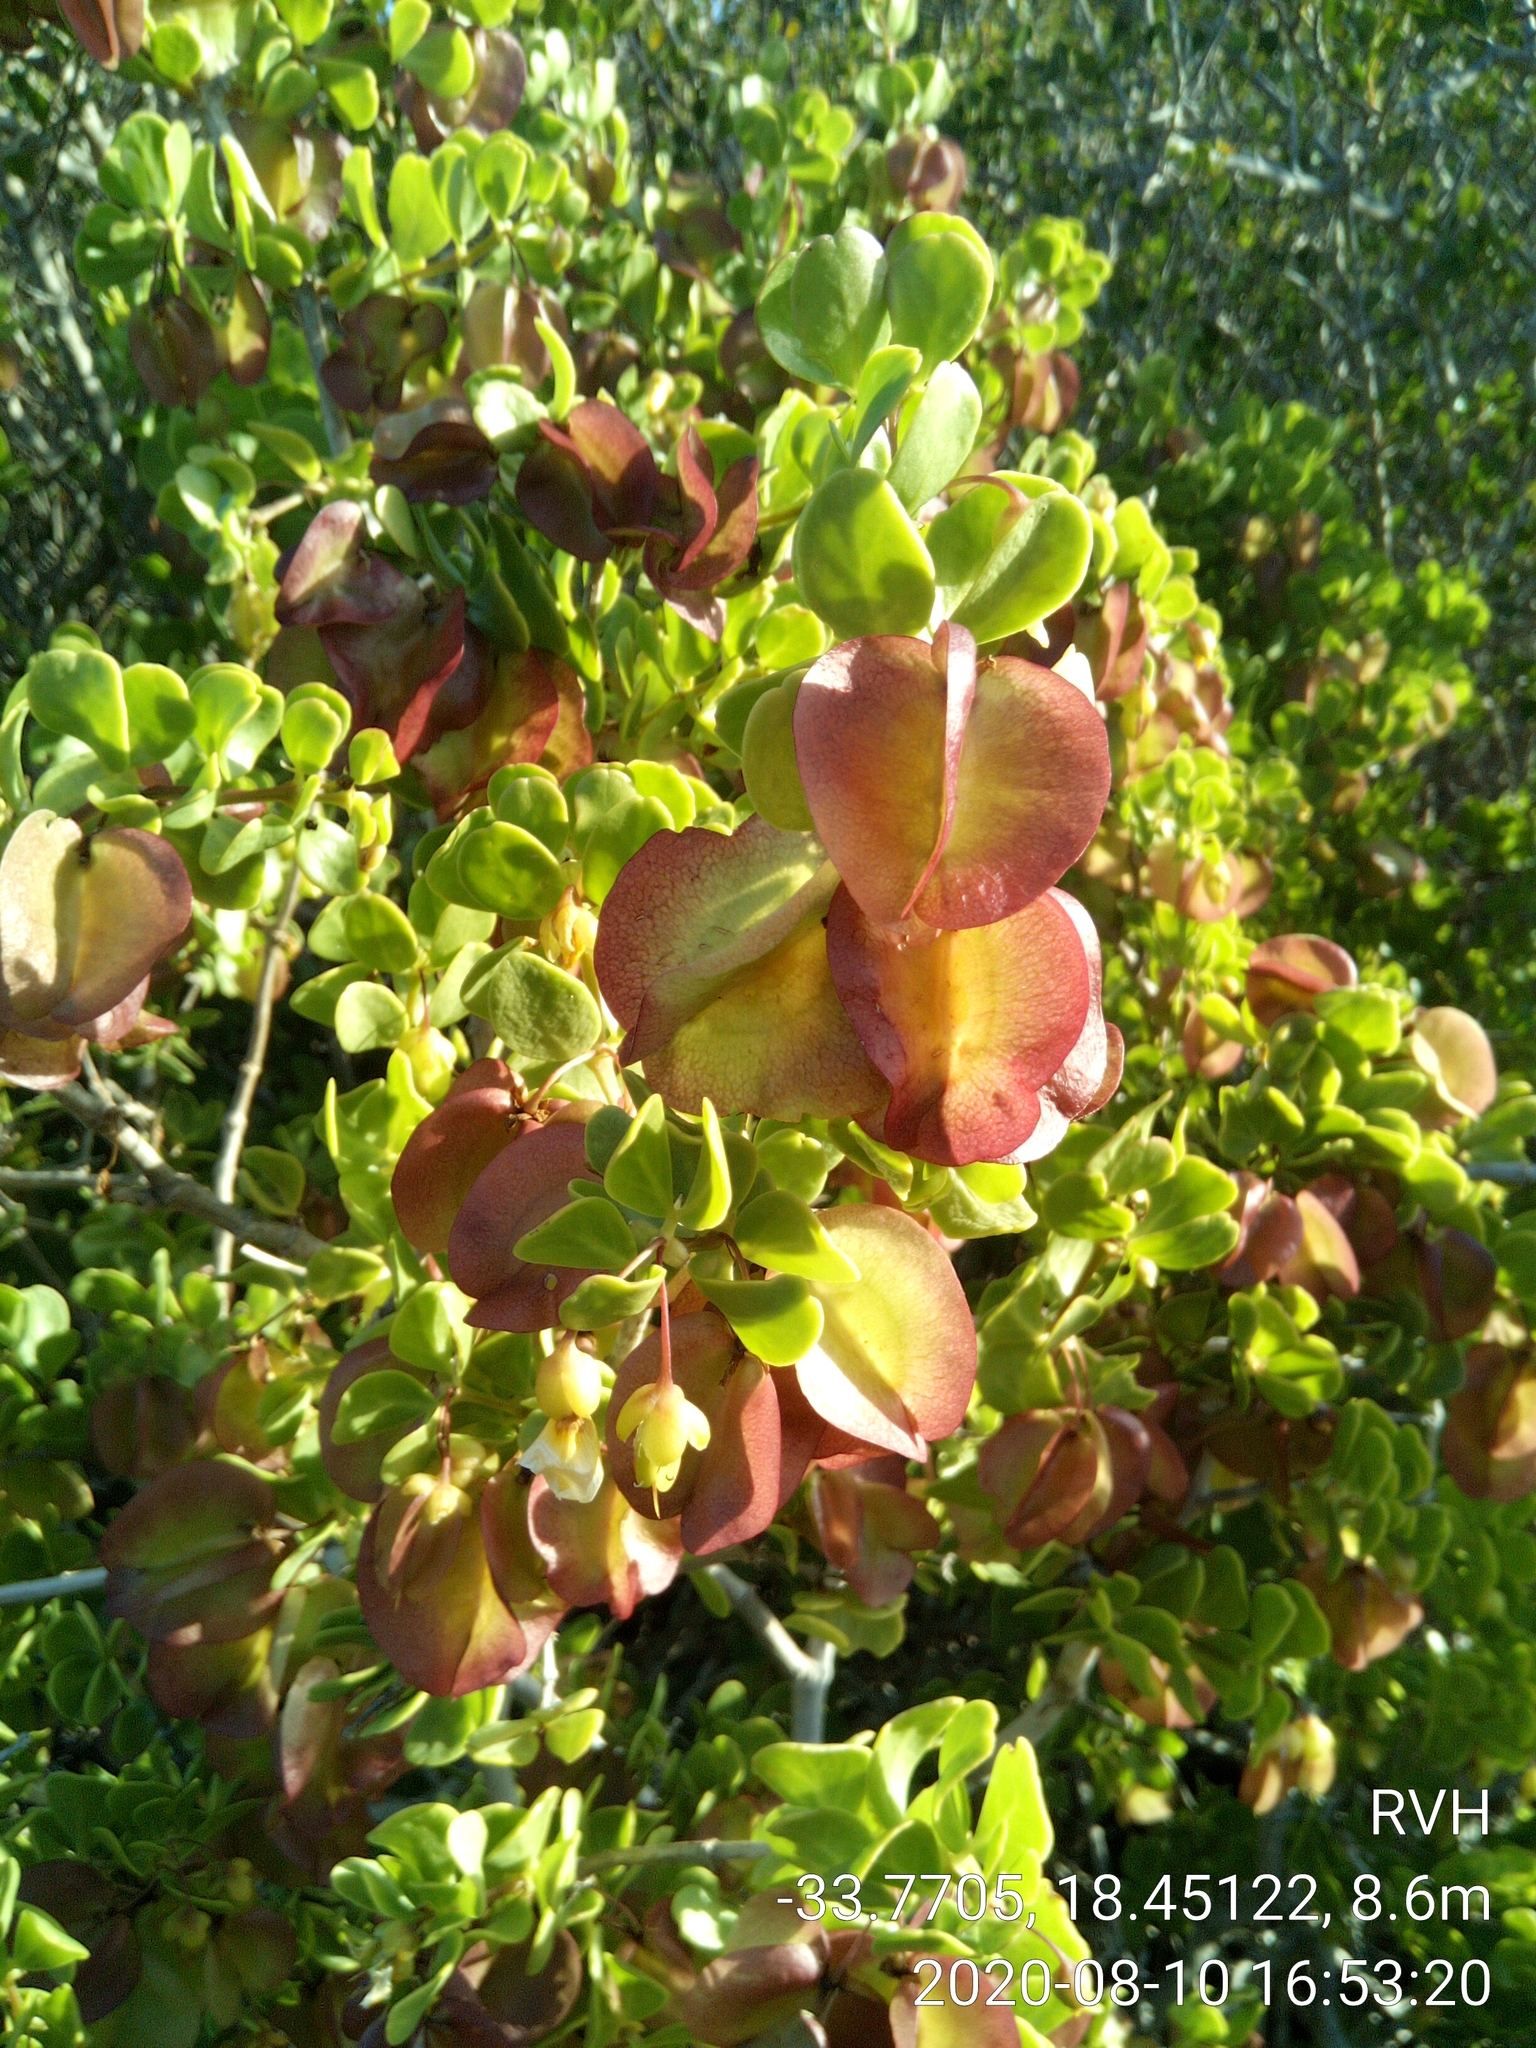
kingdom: Plantae
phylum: Tracheophyta
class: Magnoliopsida
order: Zygophyllales
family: Zygophyllaceae
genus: Roepera
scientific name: Roepera morgsana
